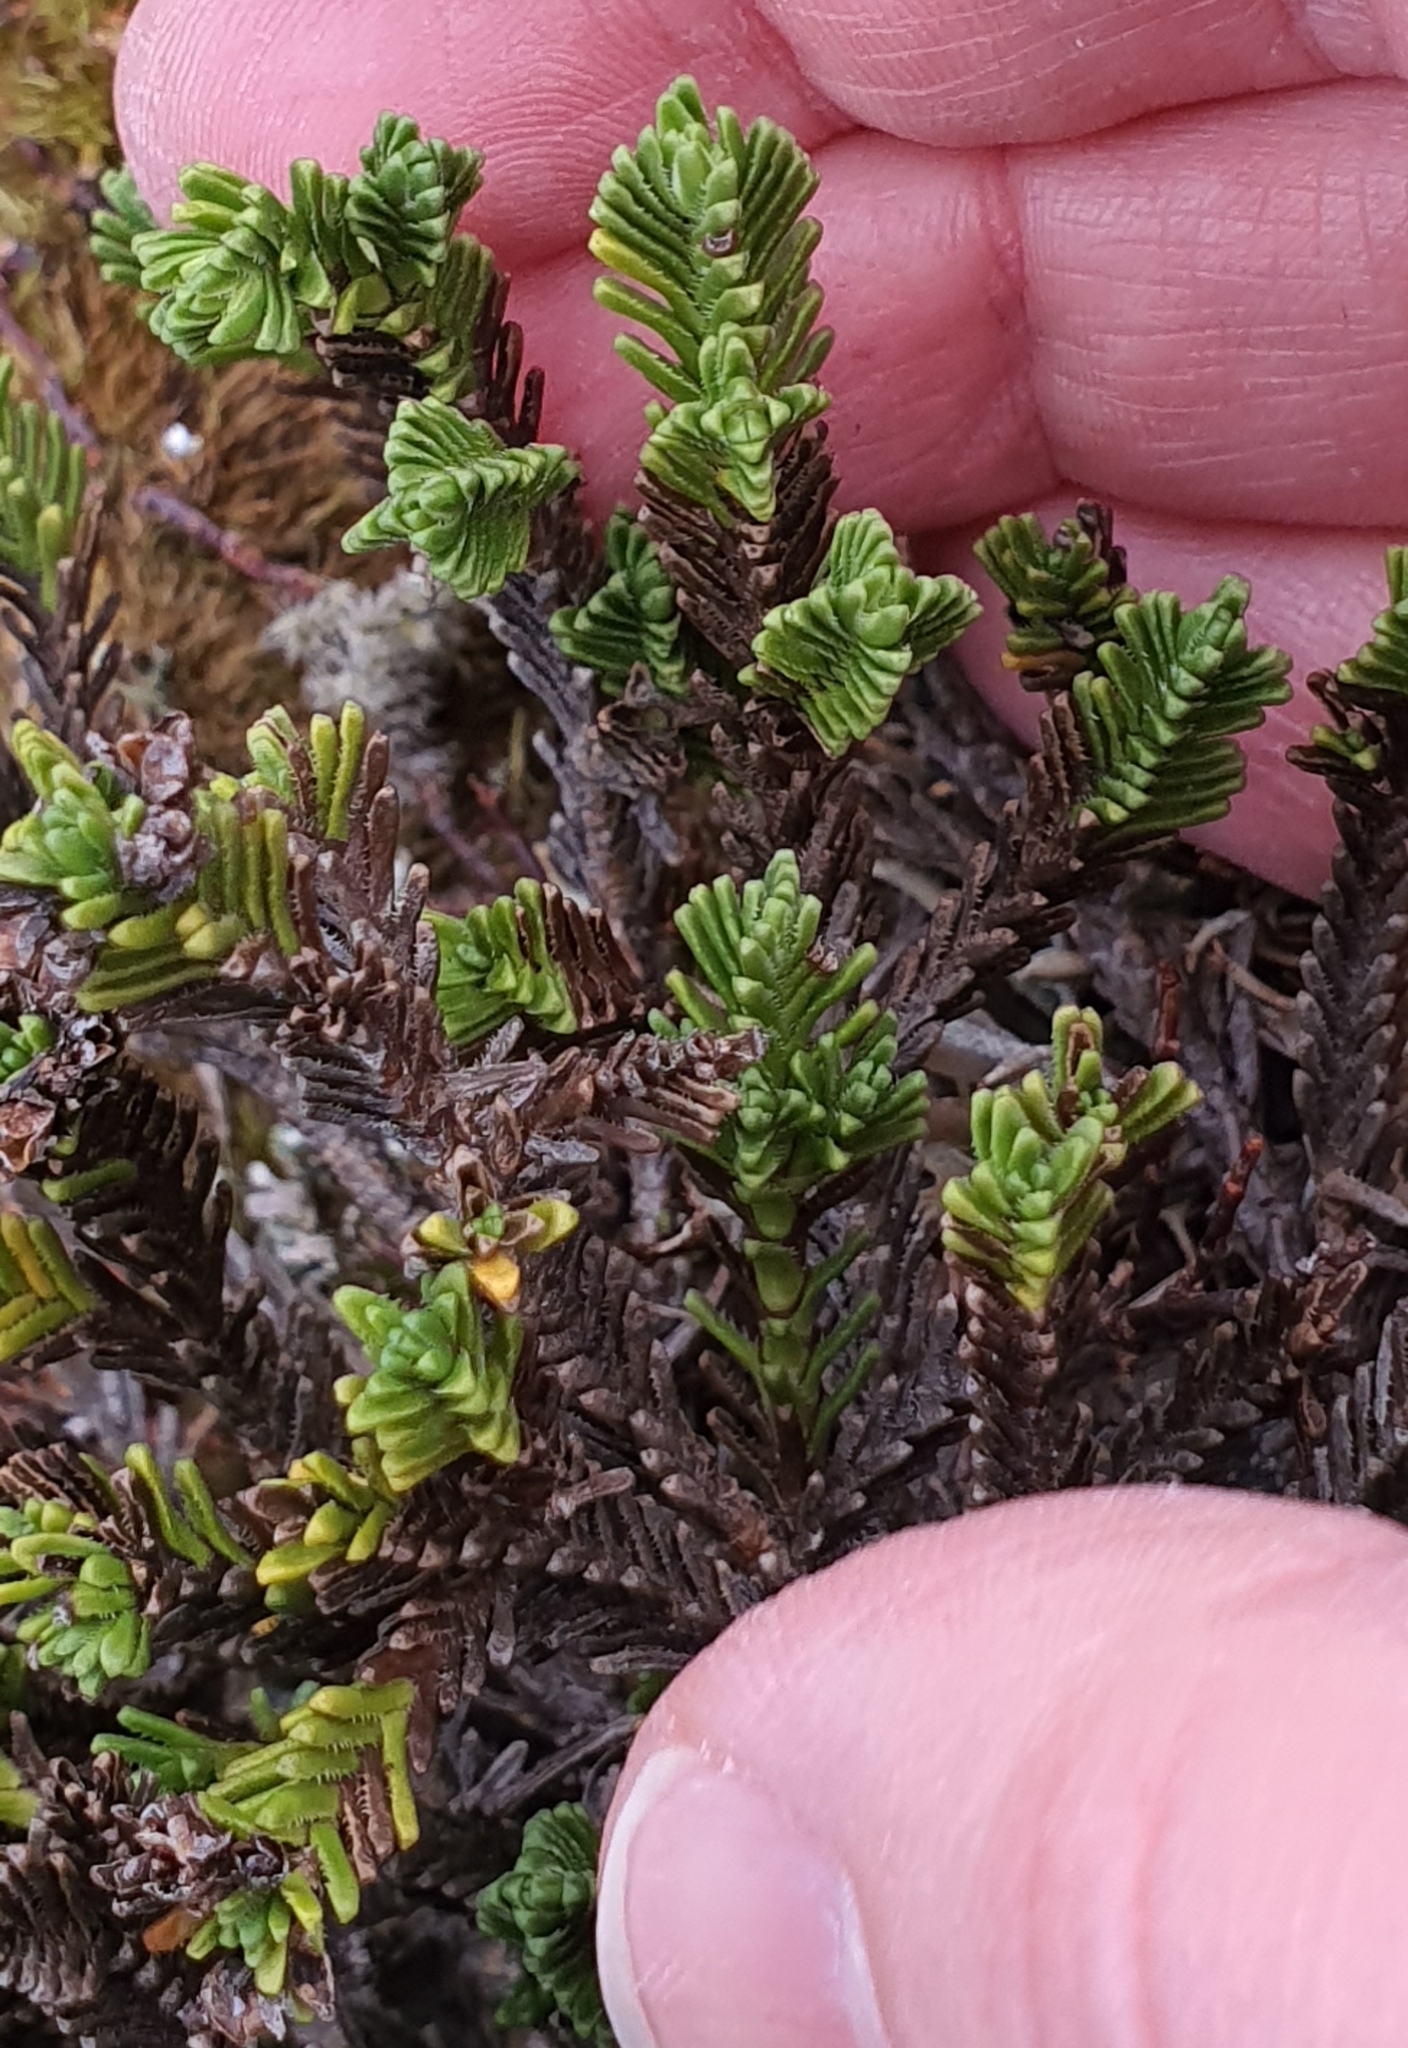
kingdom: Plantae
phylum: Tracheophyta
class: Magnoliopsida
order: Lamiales
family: Plantaginaceae
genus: Veronica
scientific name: Veronica hookeri
